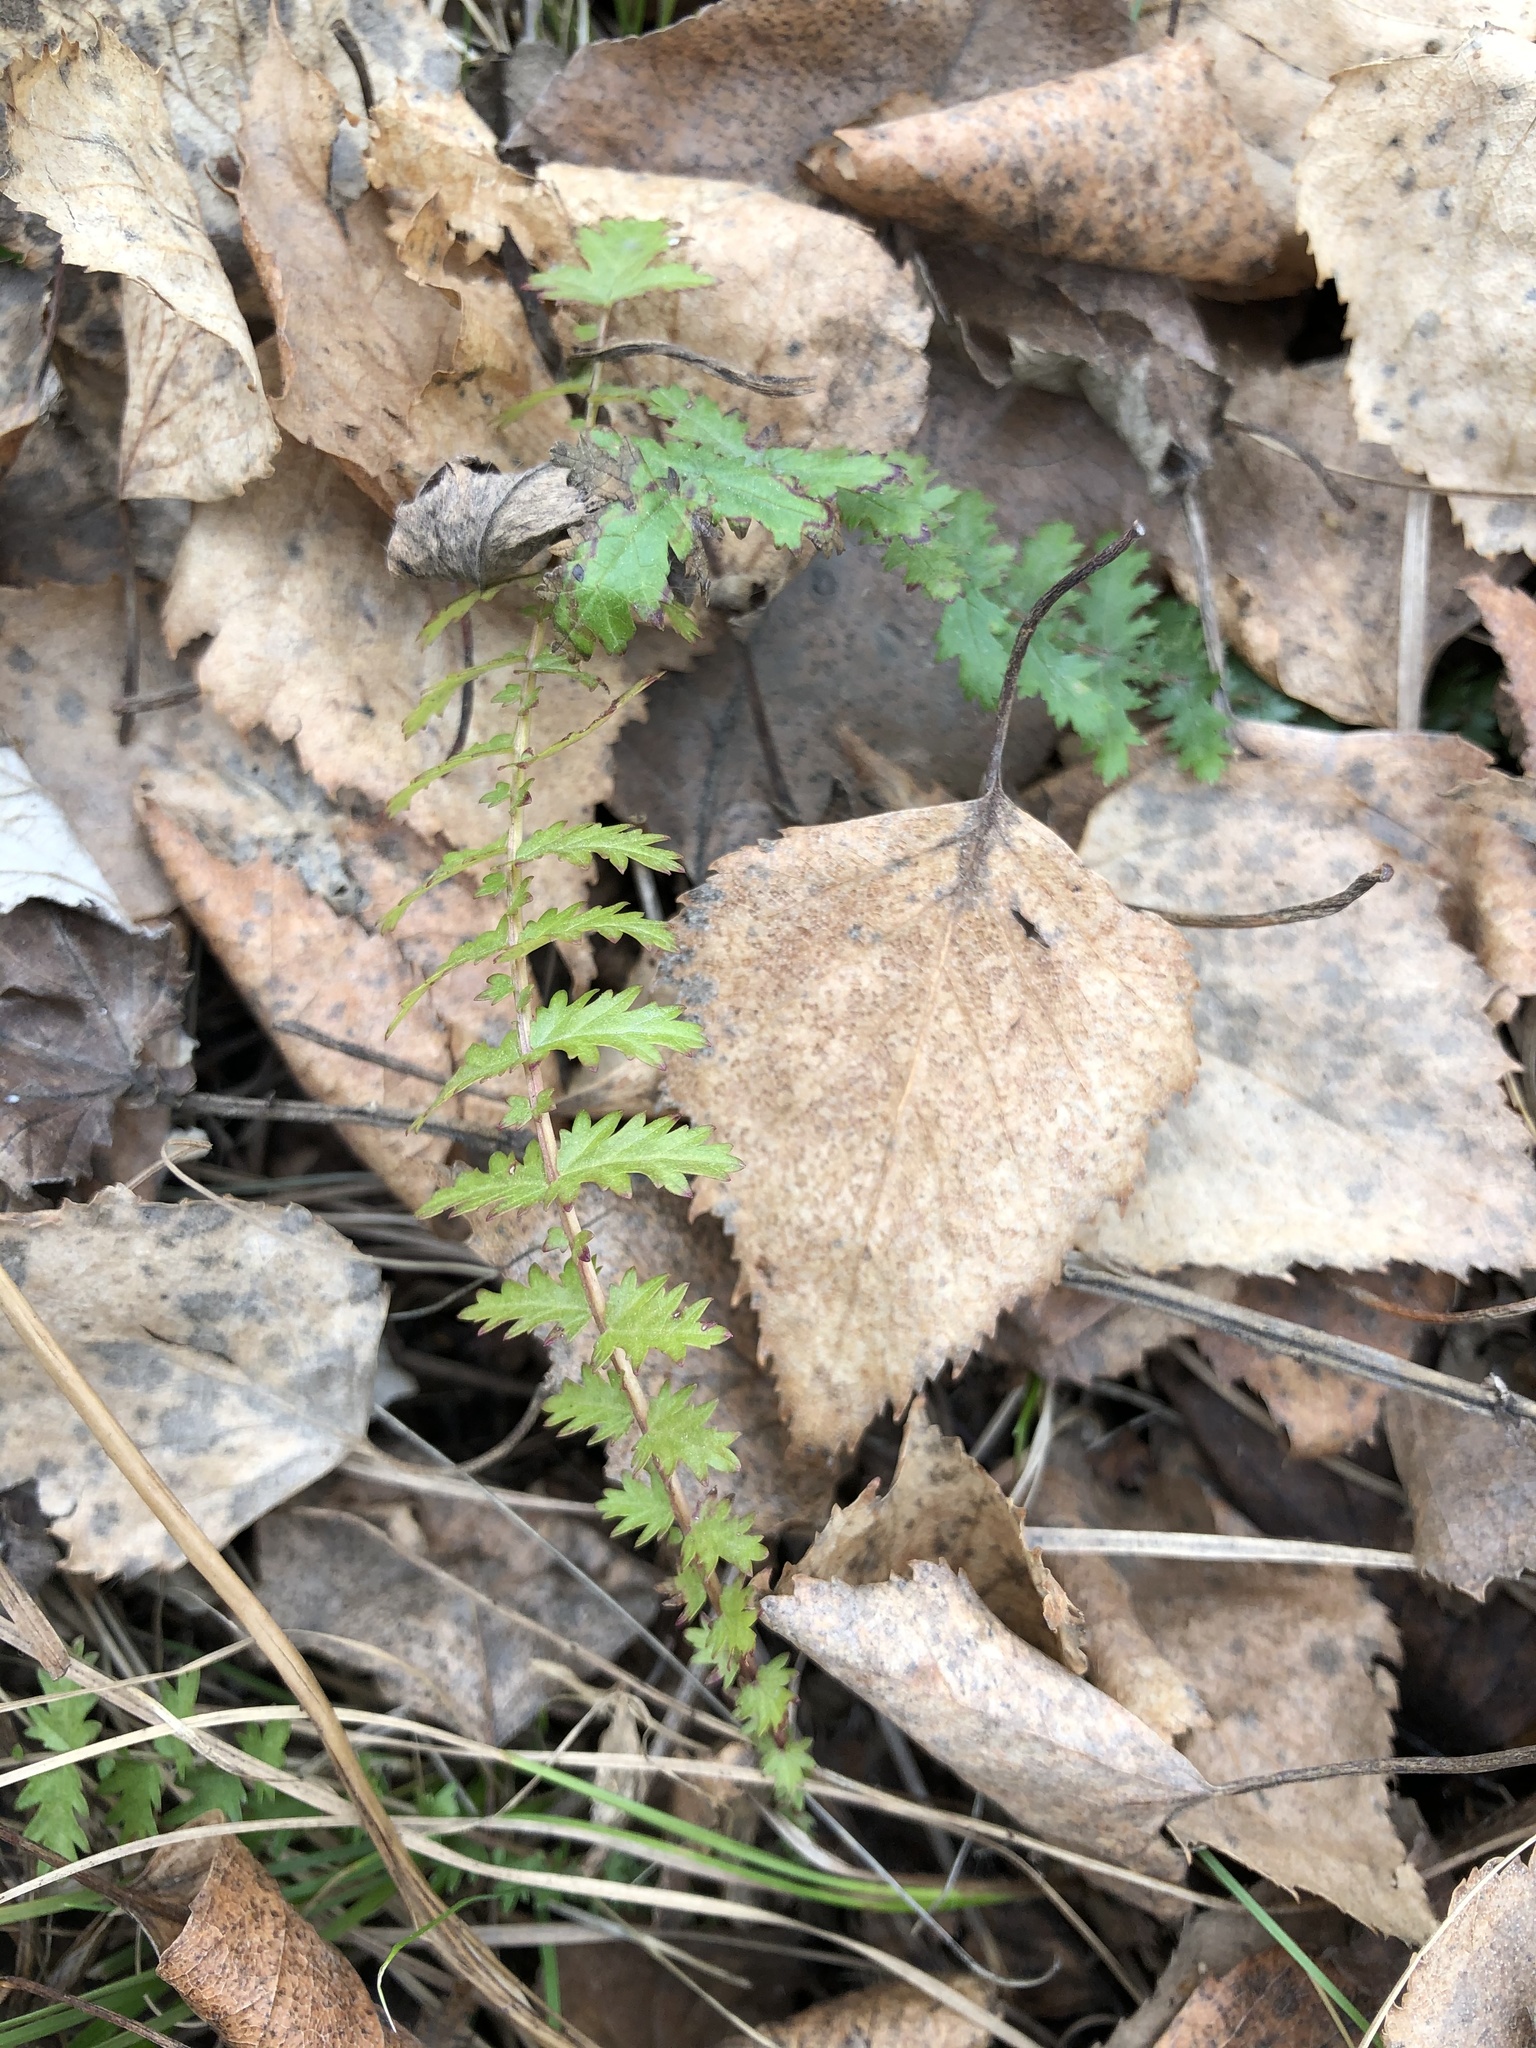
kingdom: Plantae
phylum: Tracheophyta
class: Magnoliopsida
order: Rosales
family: Rosaceae
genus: Filipendula
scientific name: Filipendula vulgaris
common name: Dropwort
